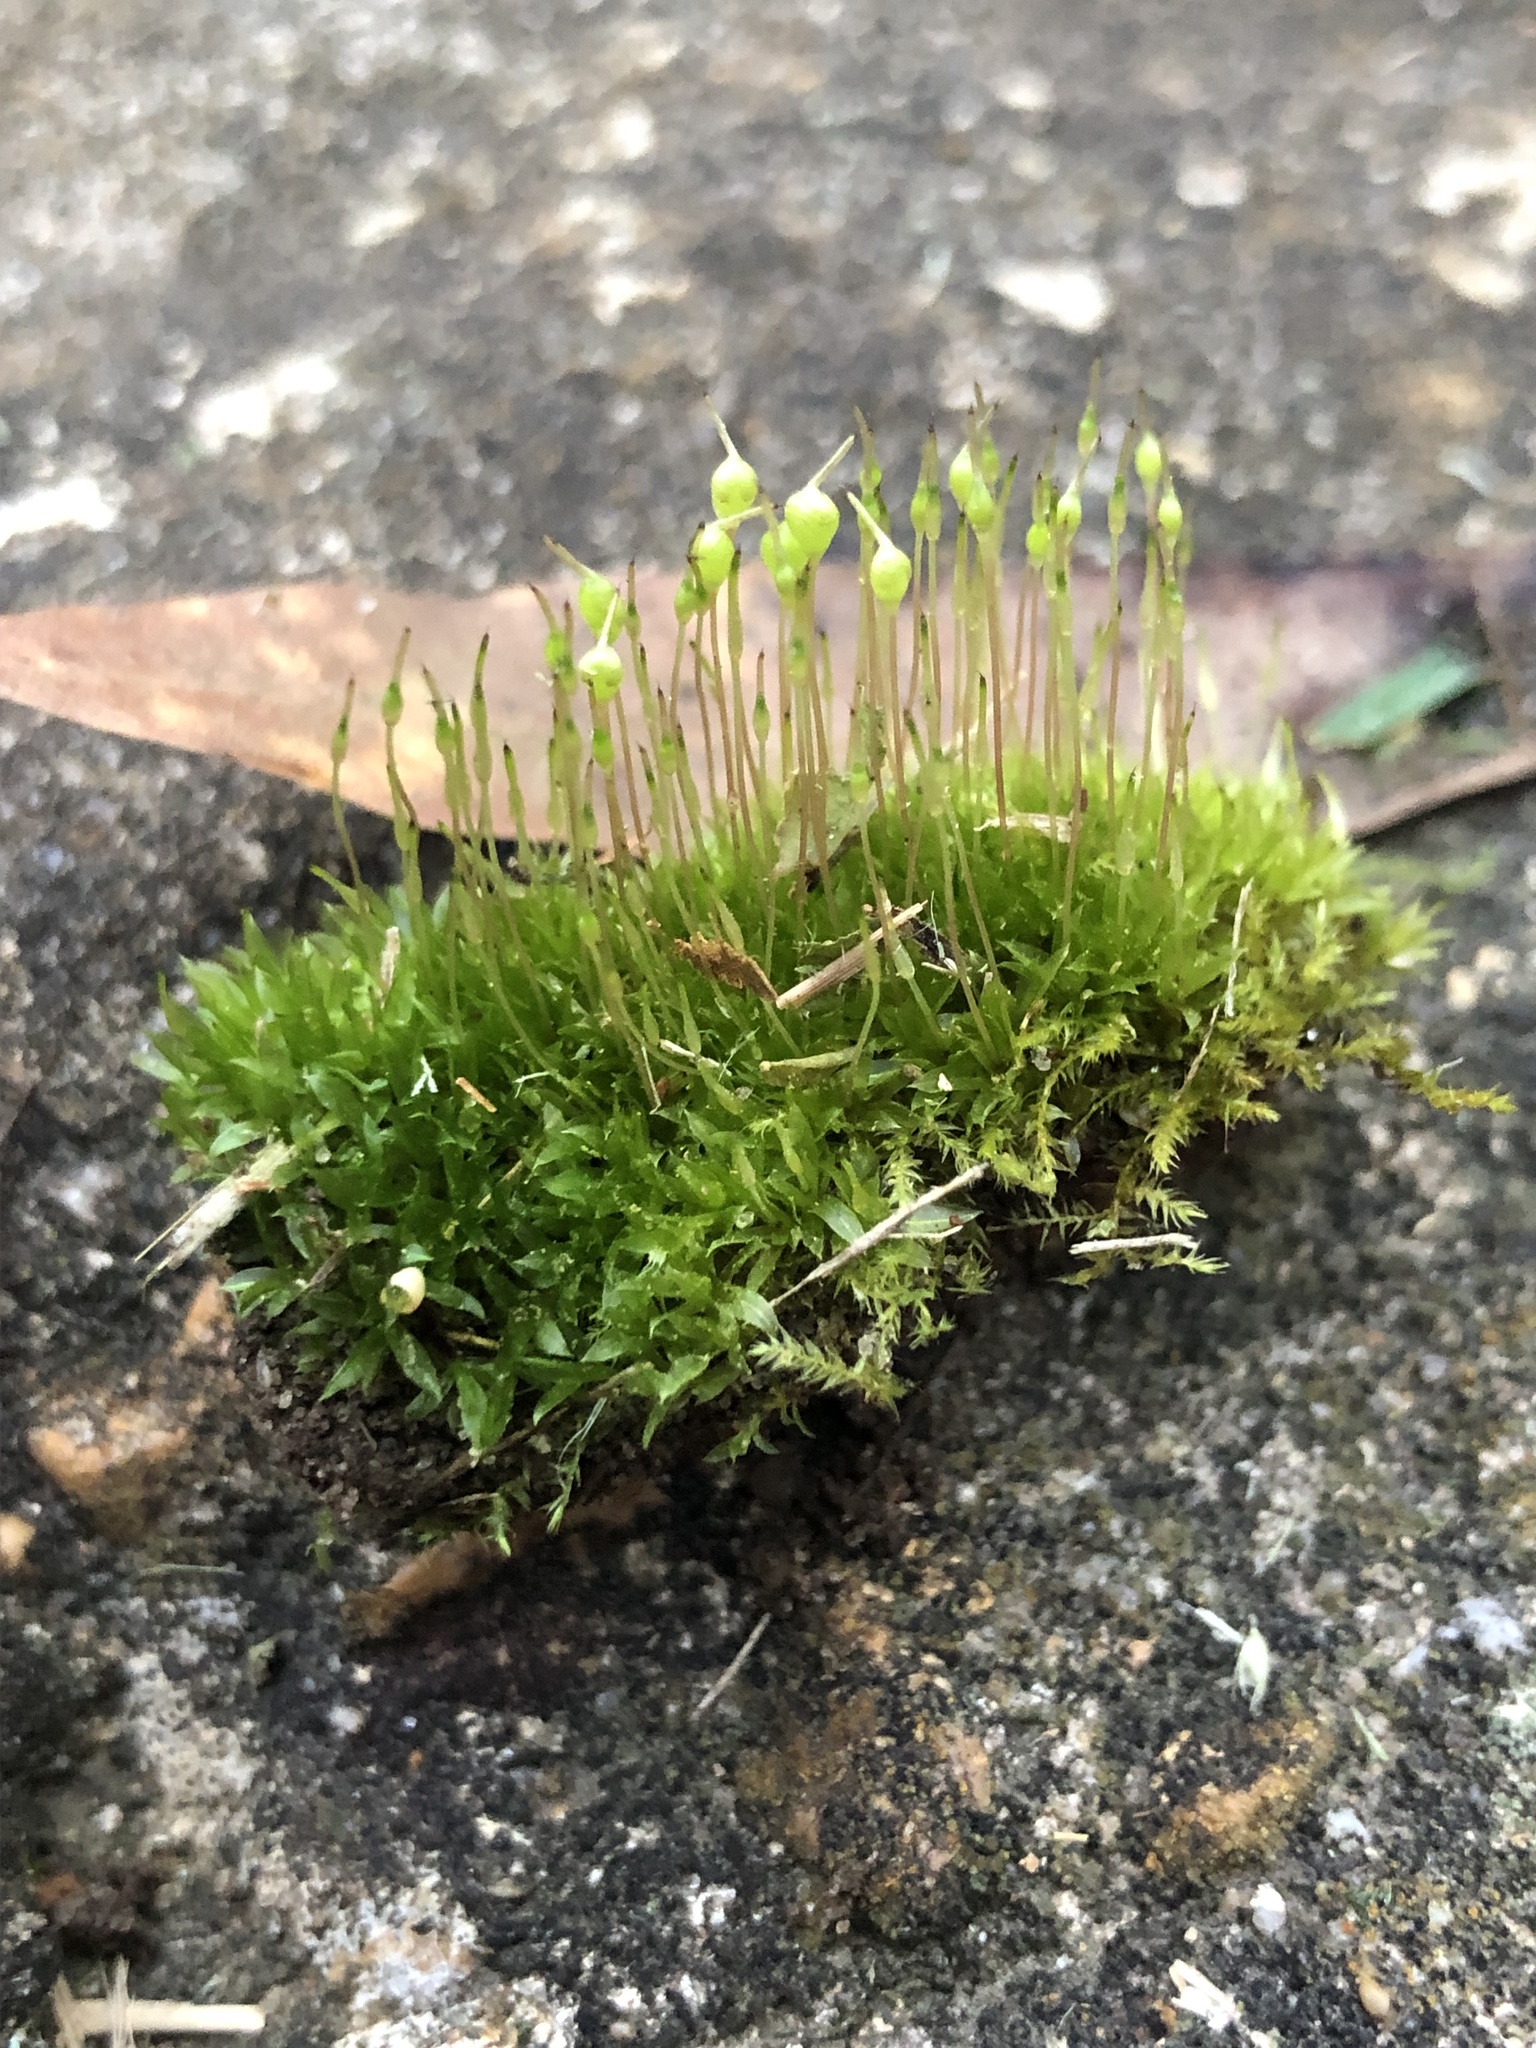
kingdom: Plantae
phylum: Bryophyta
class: Bryopsida
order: Funariales
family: Funariaceae
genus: Physcomitrium
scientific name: Physcomitrium pyriforme
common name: Common bladder-moss
